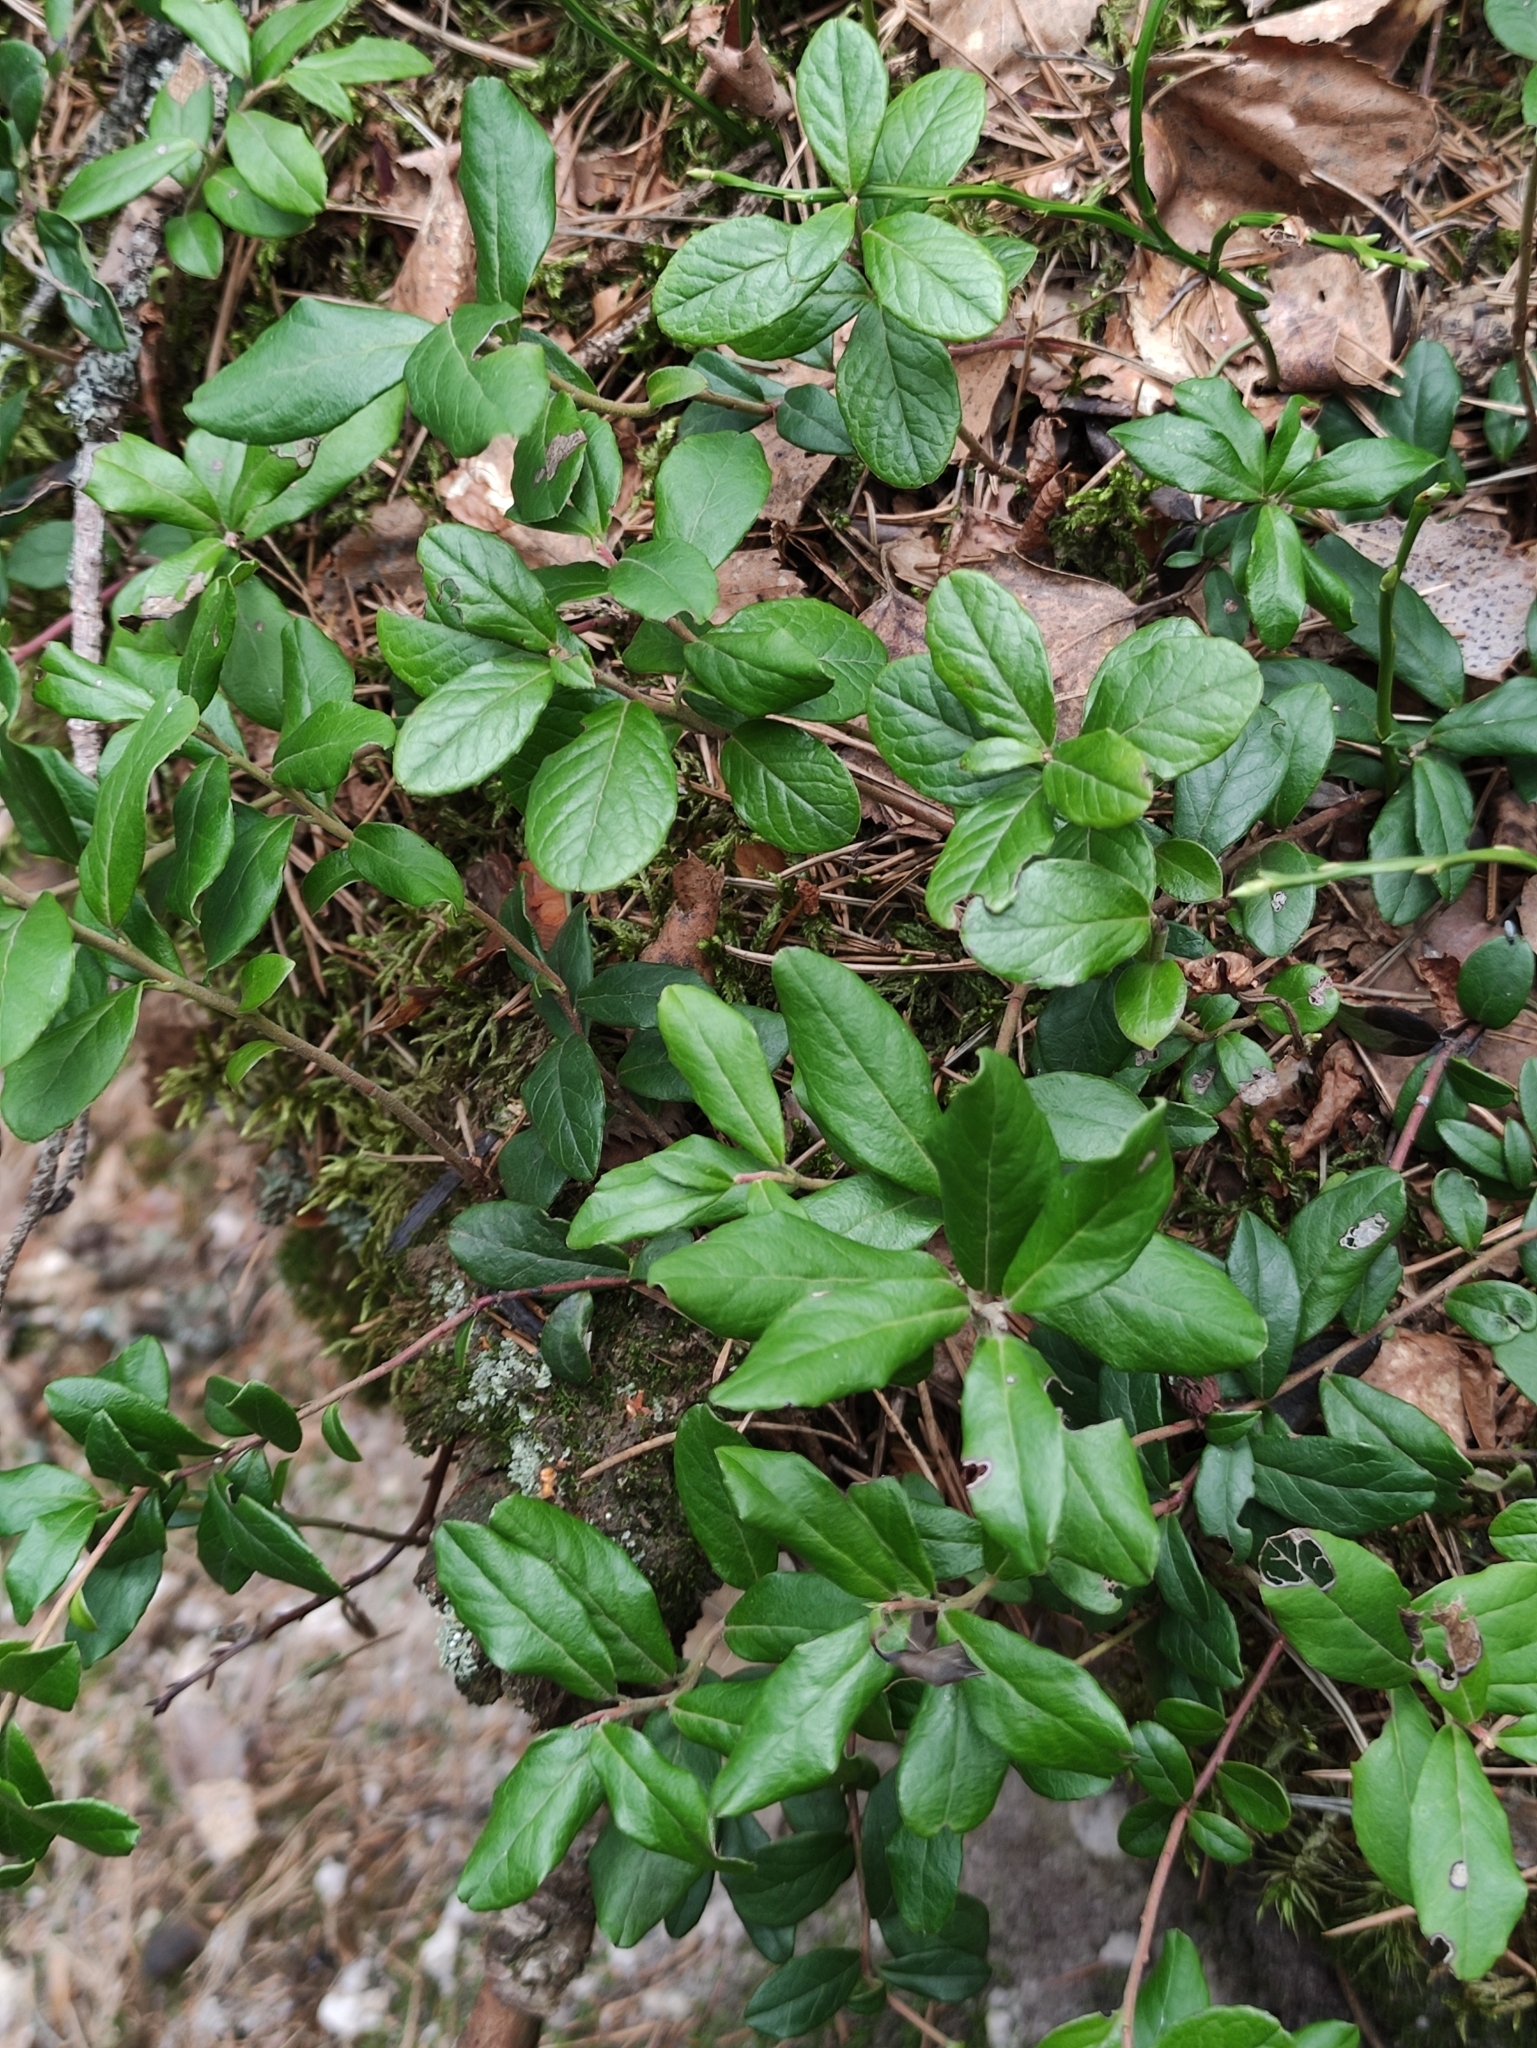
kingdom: Plantae
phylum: Tracheophyta
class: Magnoliopsida
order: Ericales
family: Ericaceae
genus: Vaccinium
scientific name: Vaccinium vitis-idaea
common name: Cowberry
